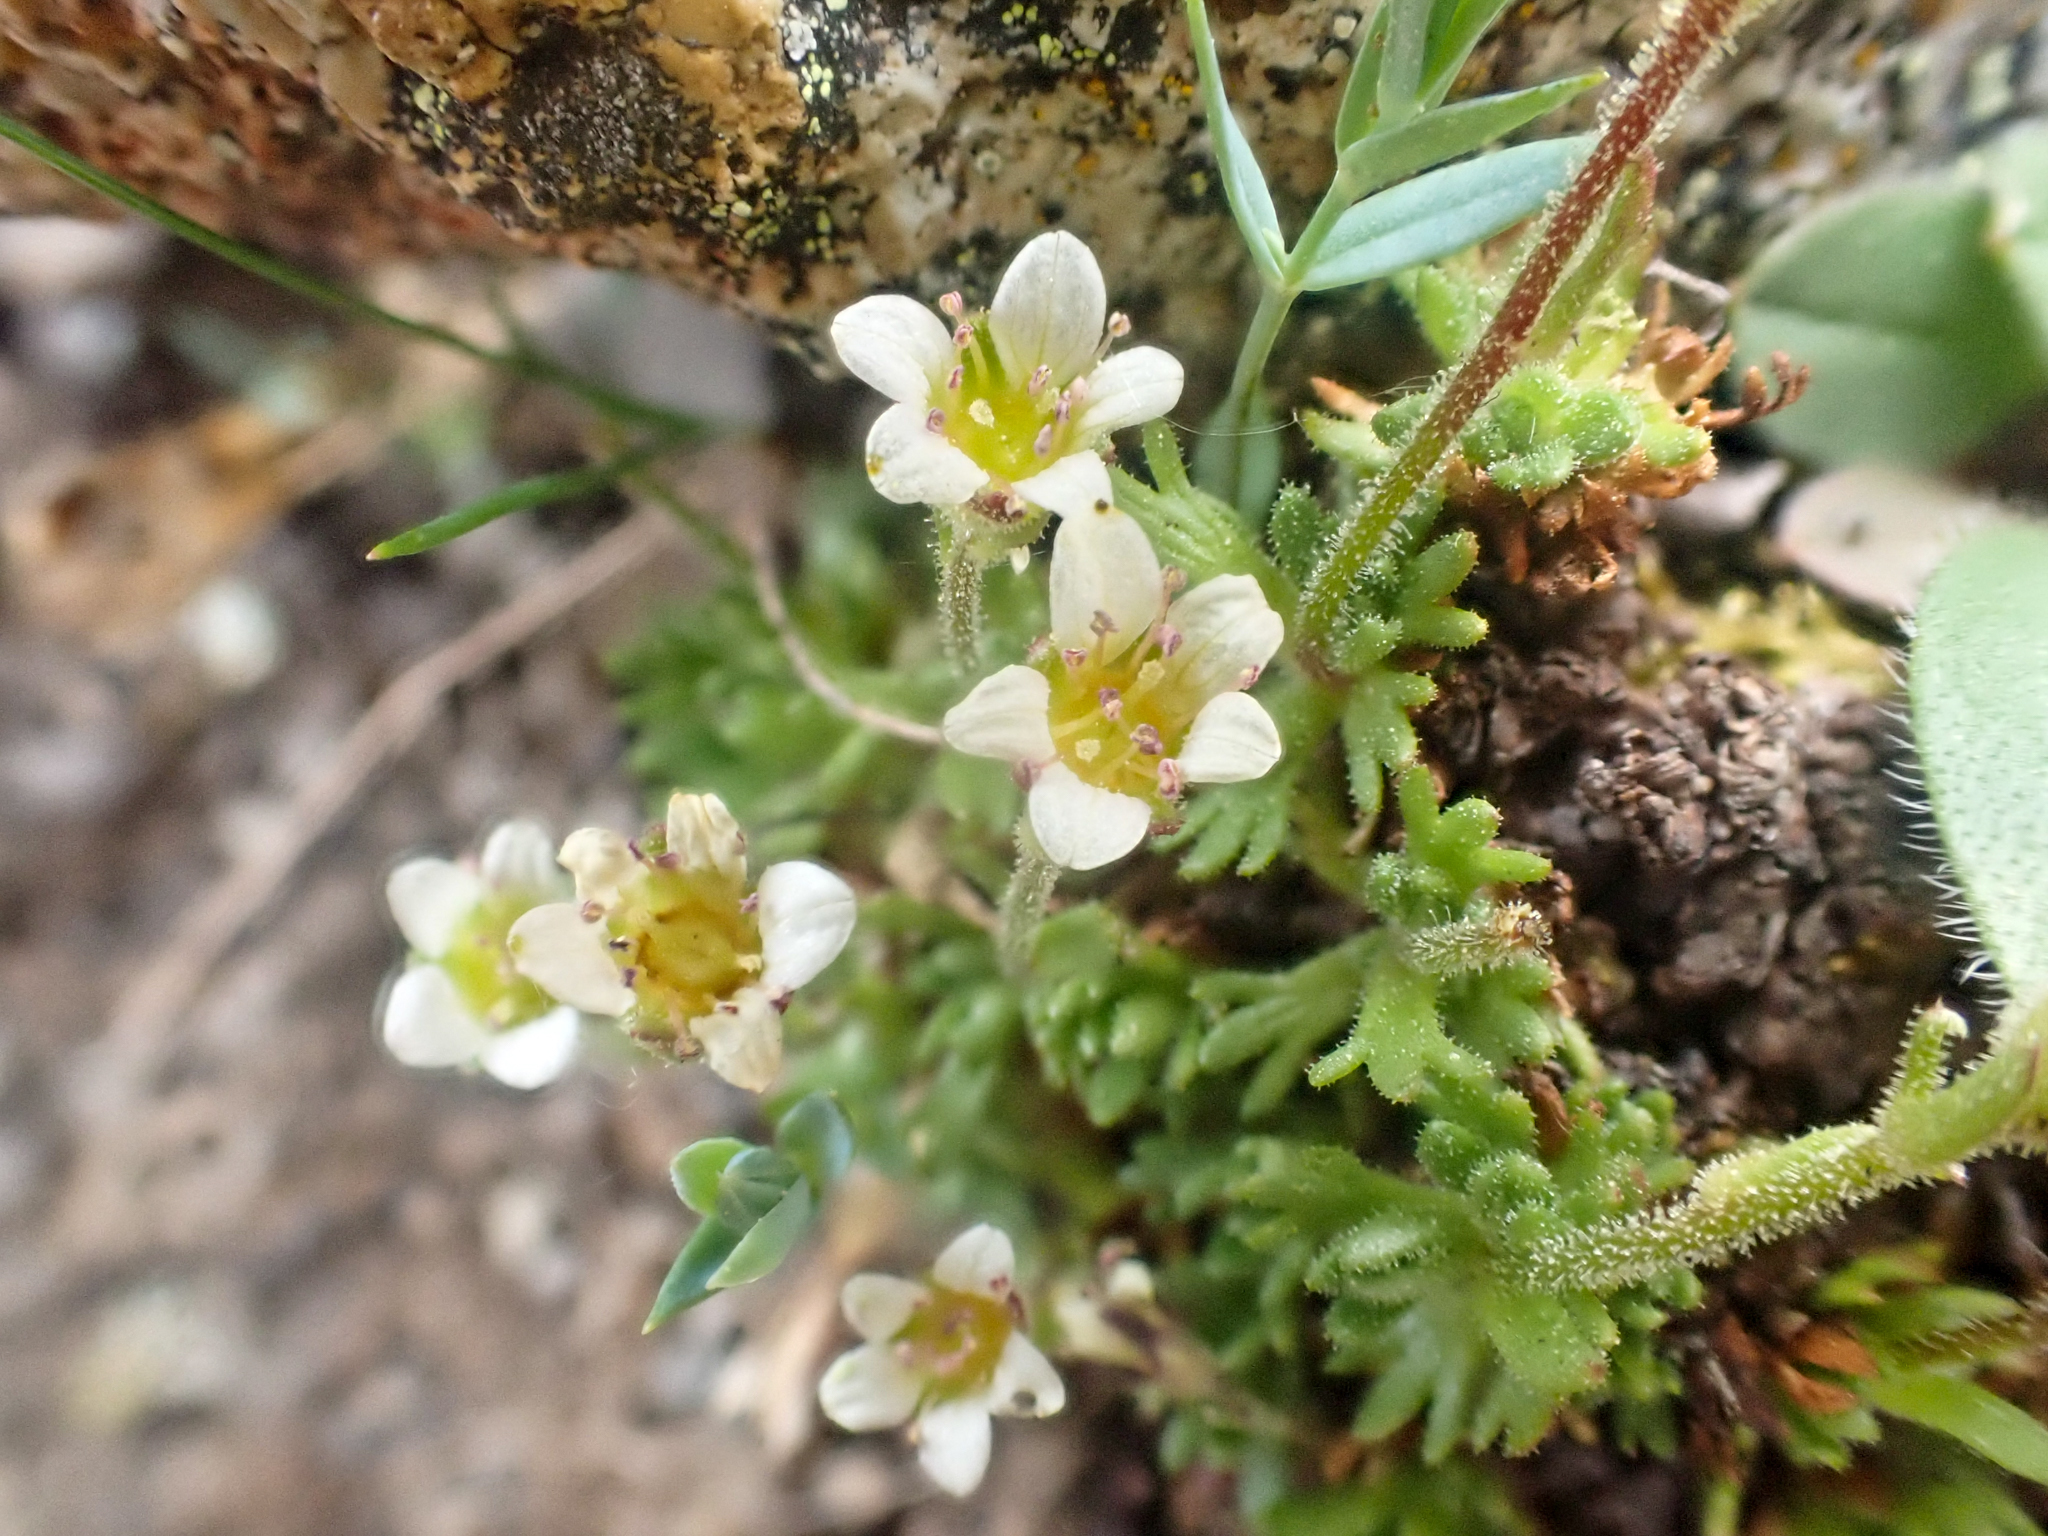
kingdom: Plantae
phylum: Tracheophyta
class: Magnoliopsida
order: Saxifragales
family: Saxifragaceae
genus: Saxifraga
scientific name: Saxifraga cespitosa
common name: Tufted saxifrage
